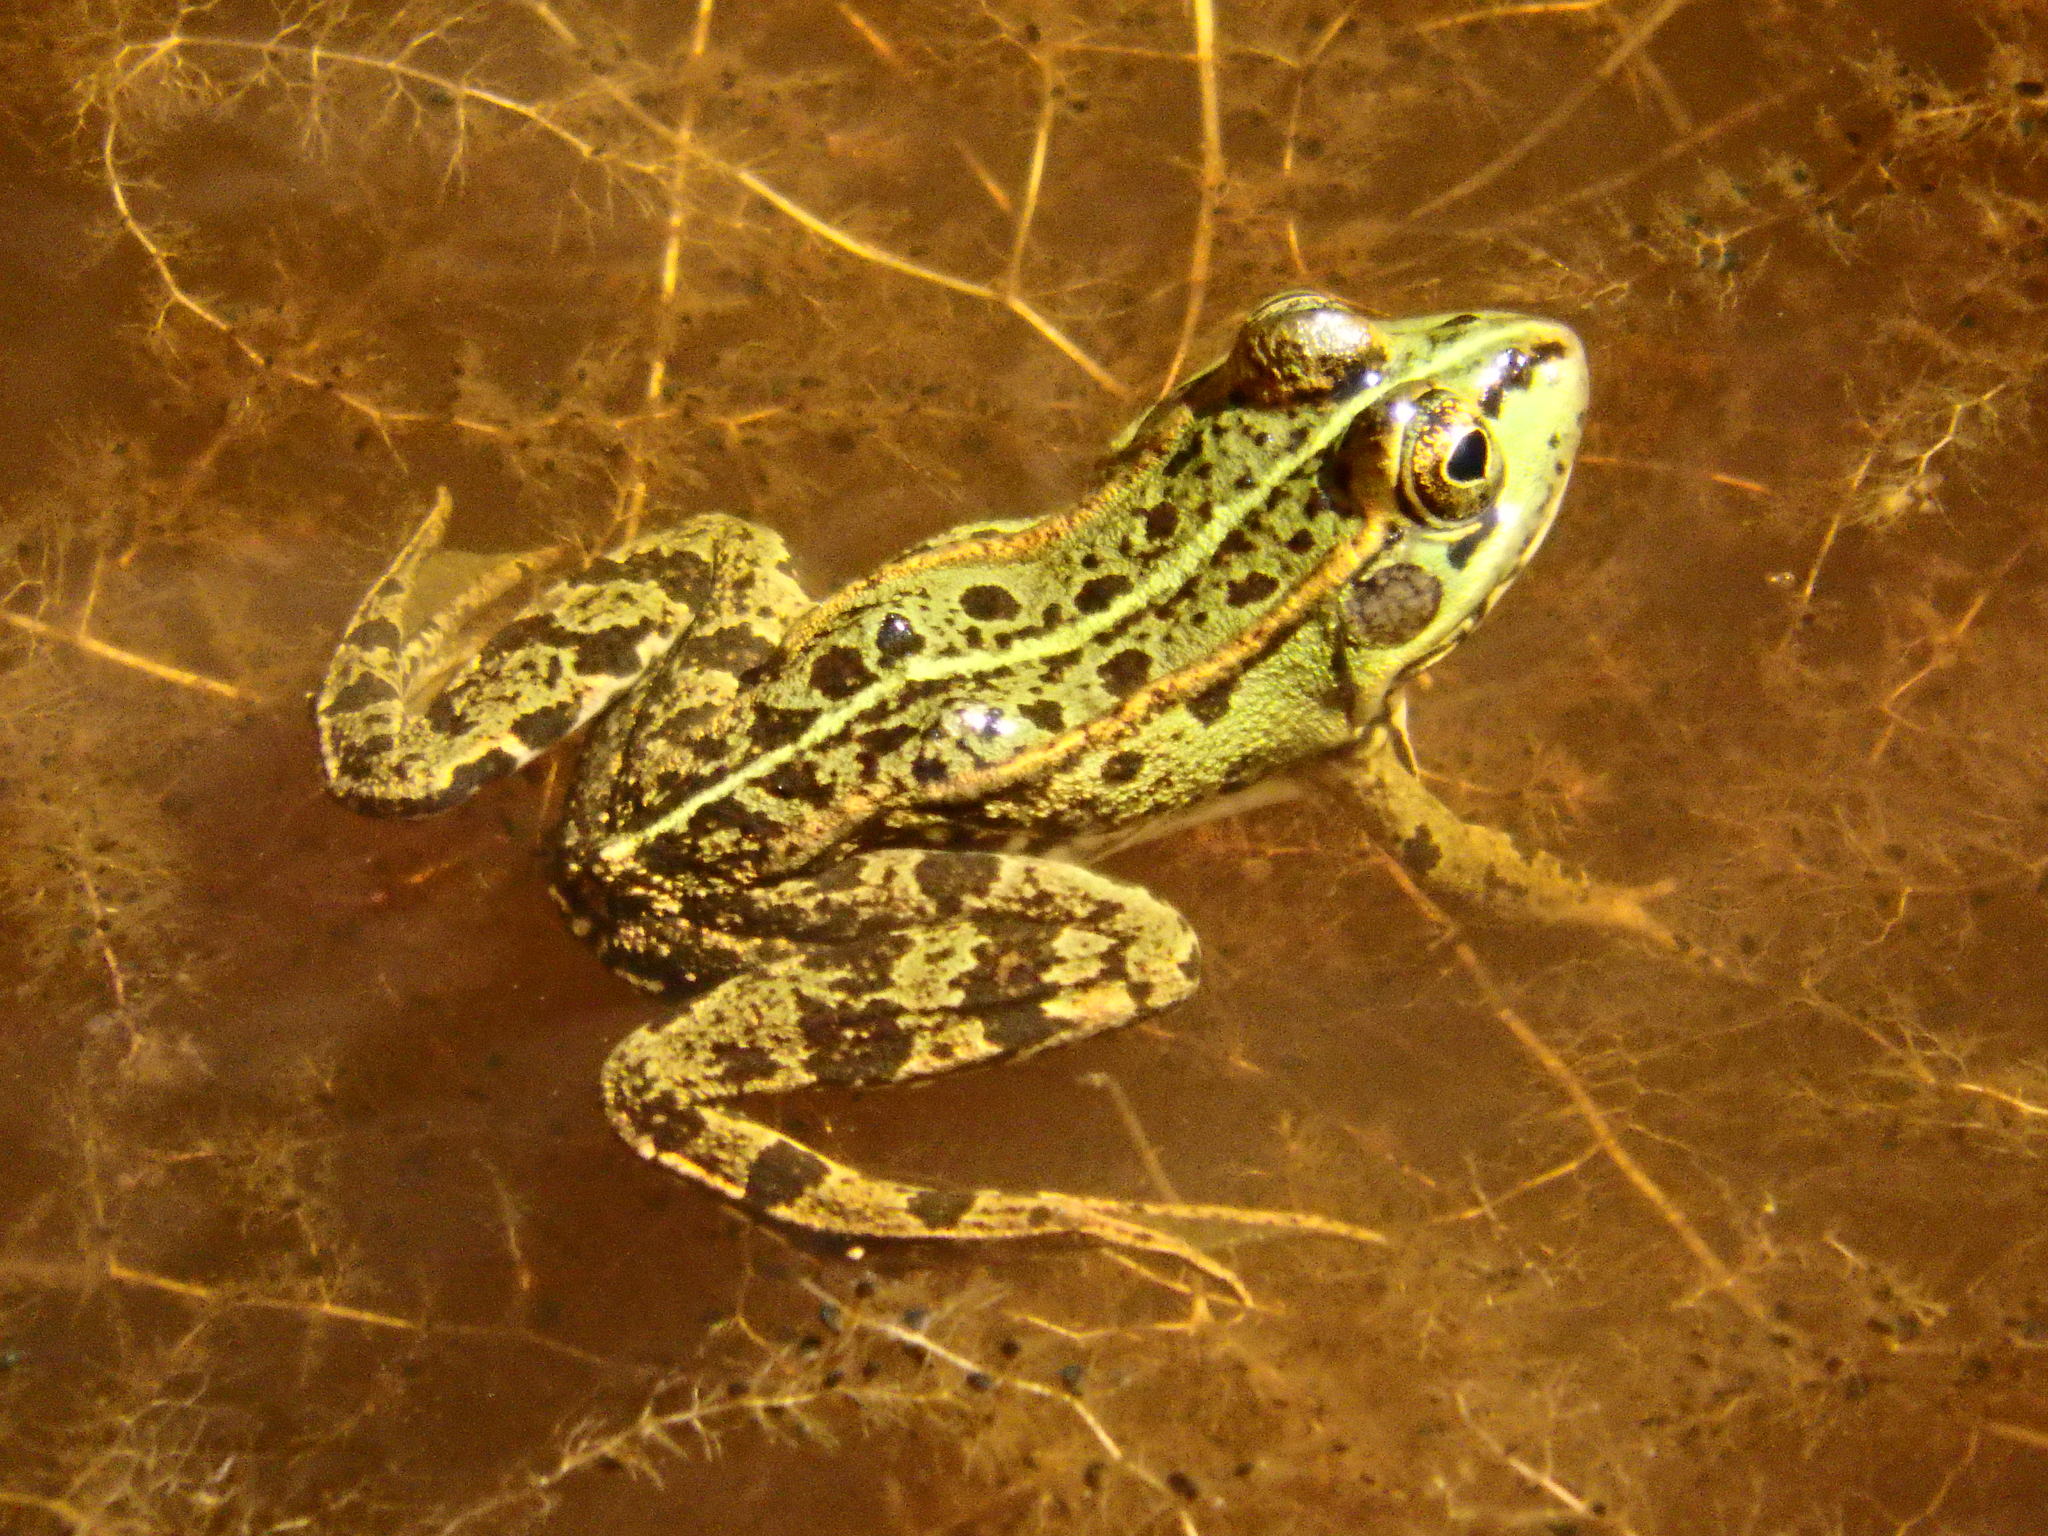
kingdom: Animalia
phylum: Chordata
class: Amphibia
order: Anura
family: Ranidae
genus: Pelophylax
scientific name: Pelophylax perezi
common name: Perez's frog
